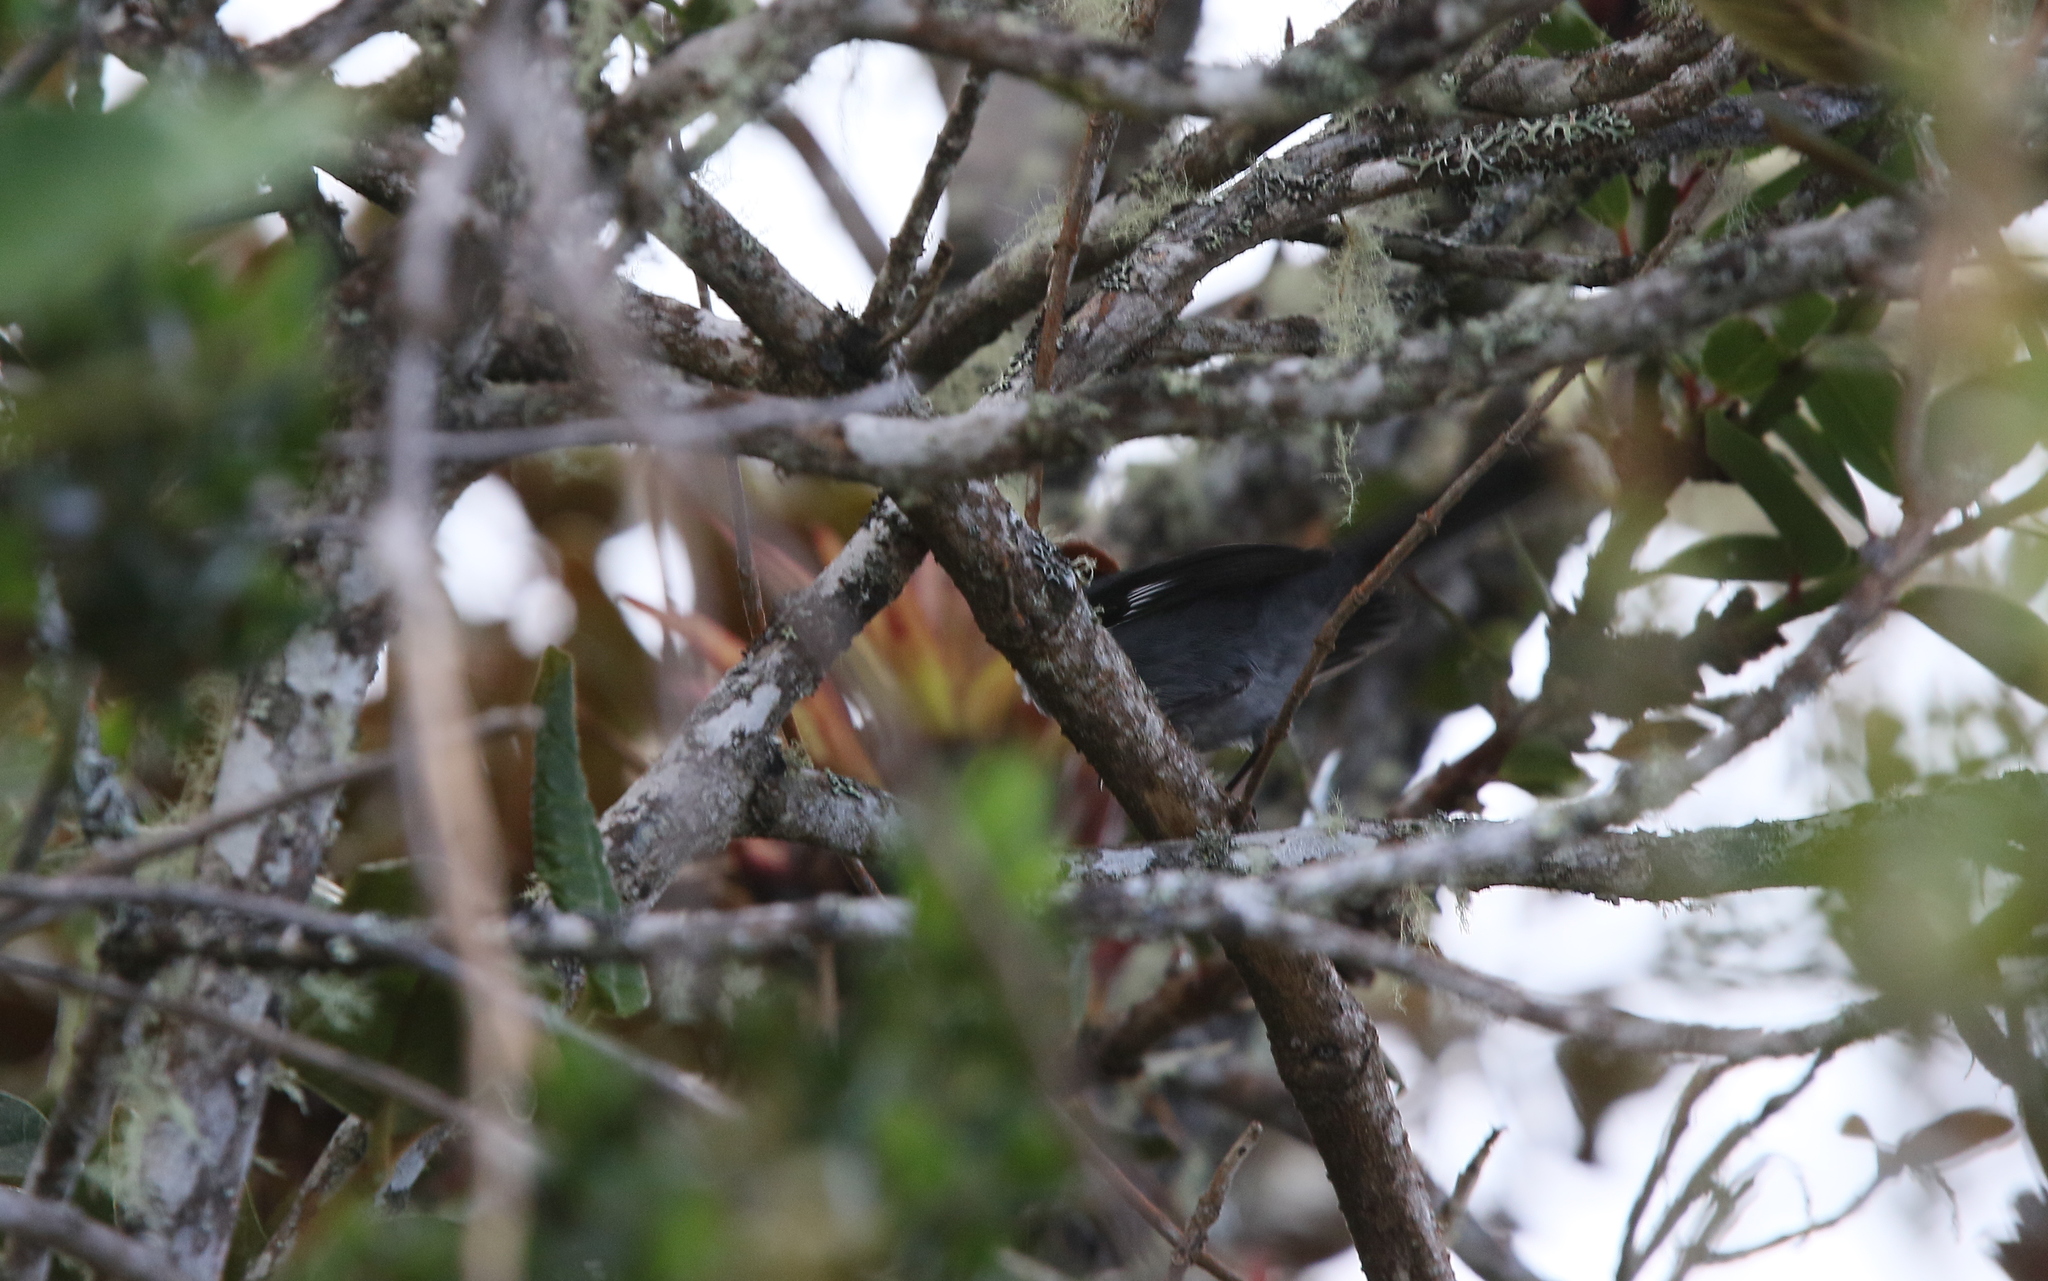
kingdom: Animalia
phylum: Chordata
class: Aves
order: Passeriformes
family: Passerellidae
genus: Atlapetes
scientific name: Atlapetes schistaceus
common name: Slaty brushfinch
